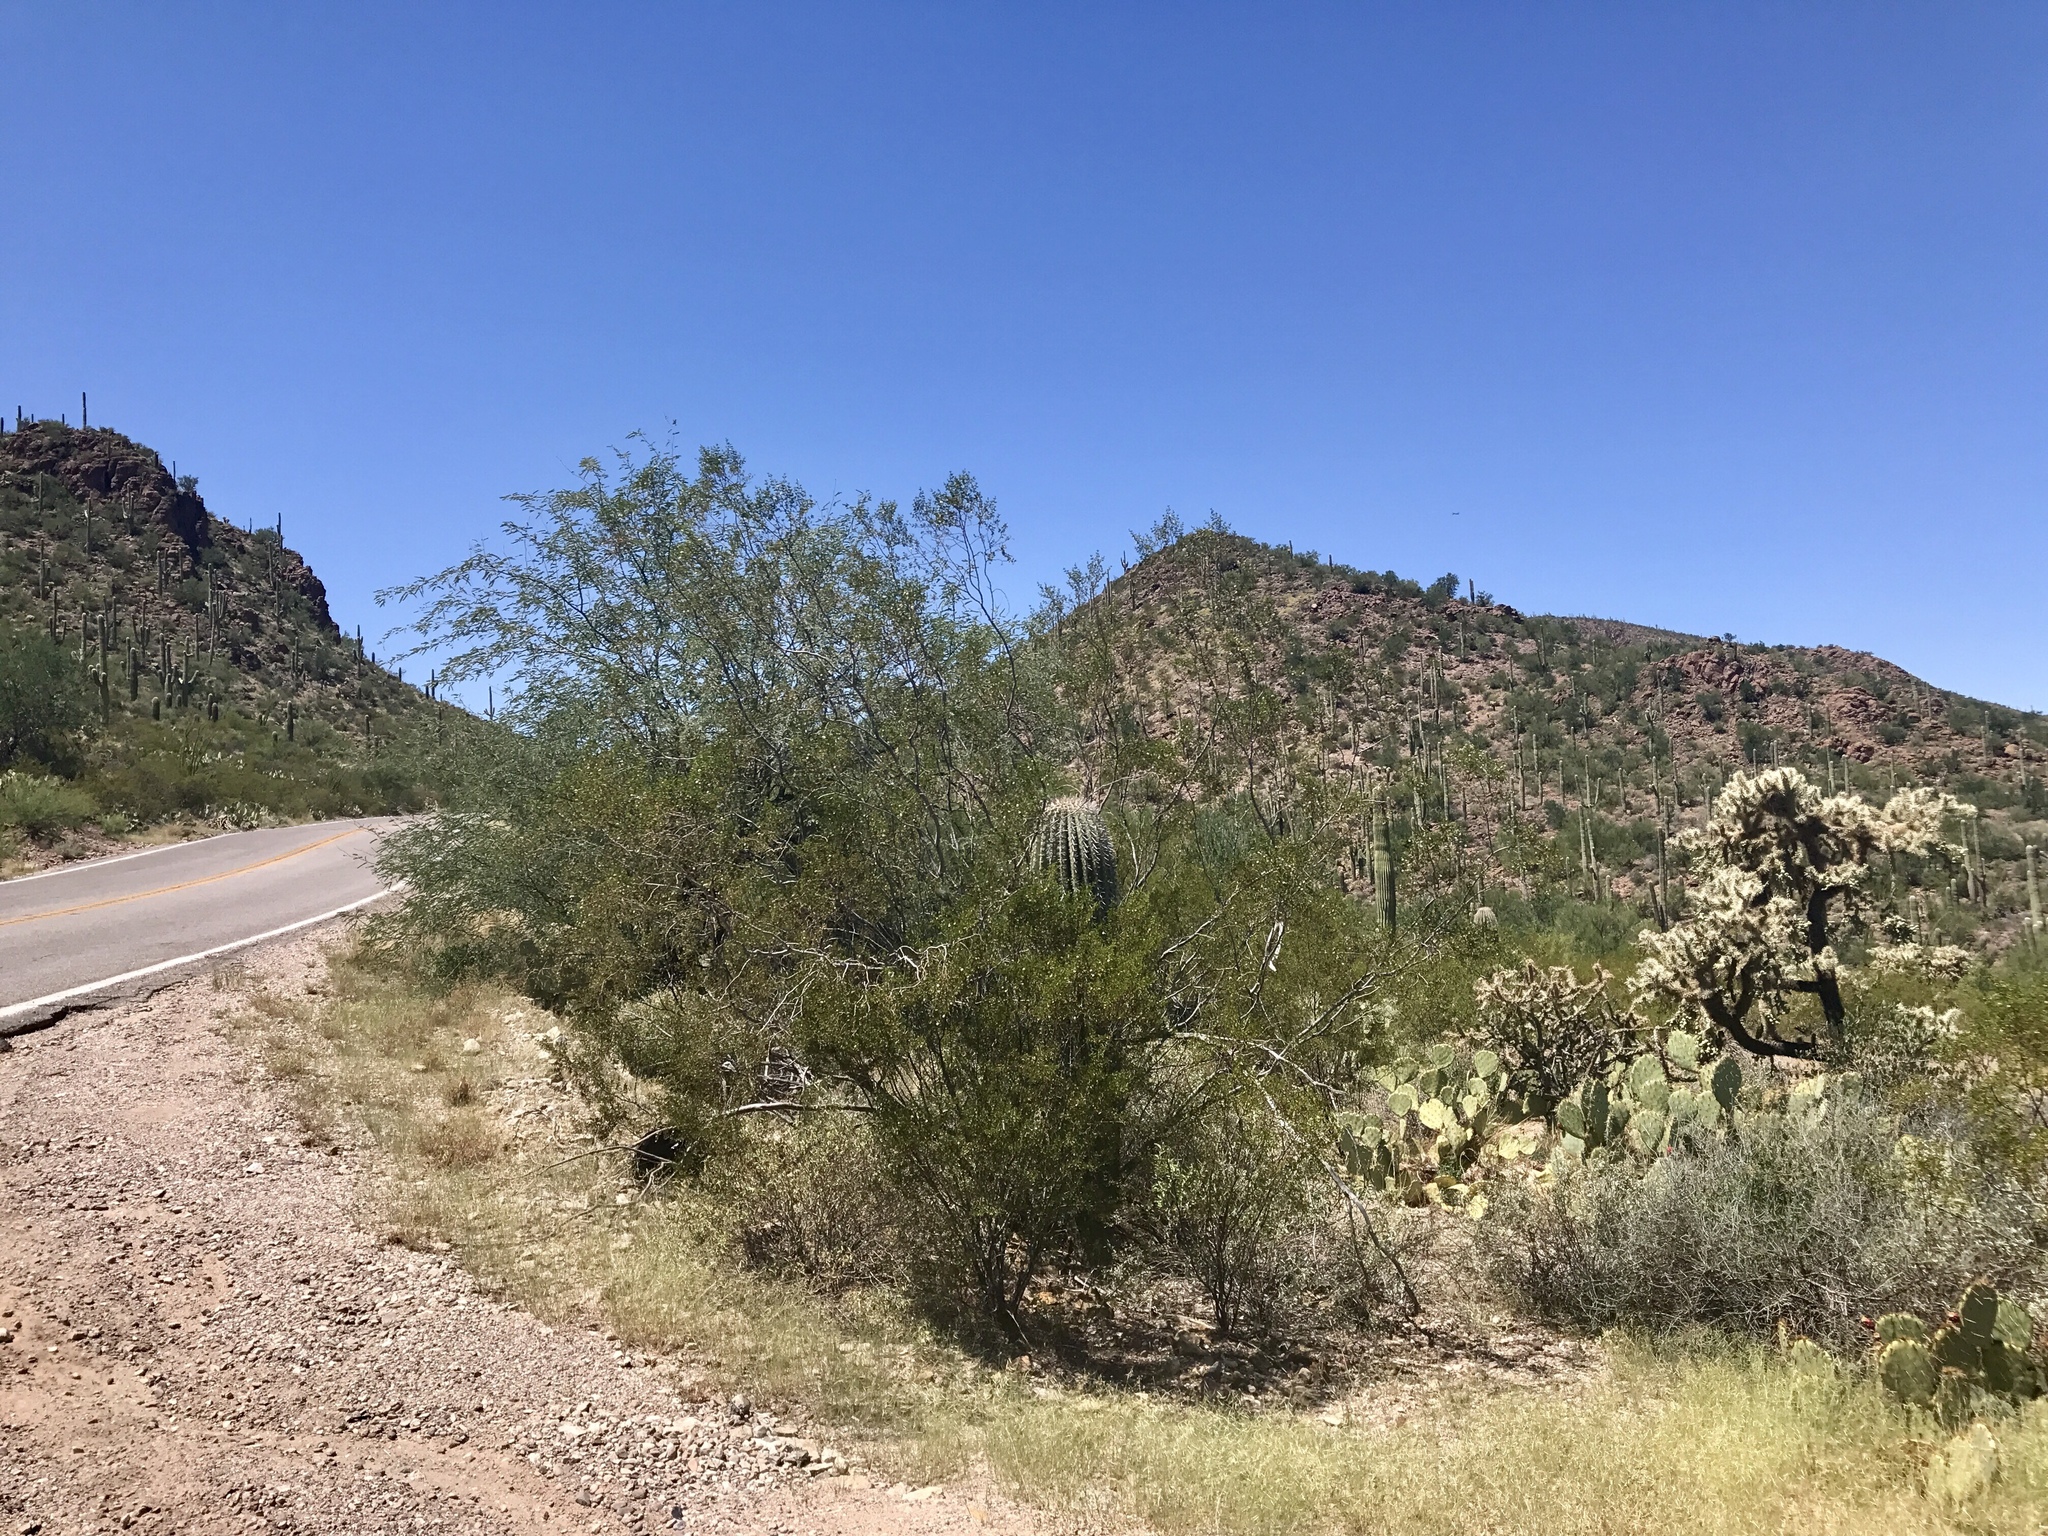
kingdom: Plantae
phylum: Tracheophyta
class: Magnoliopsida
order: Zygophyllales
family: Zygophyllaceae
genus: Larrea
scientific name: Larrea tridentata
